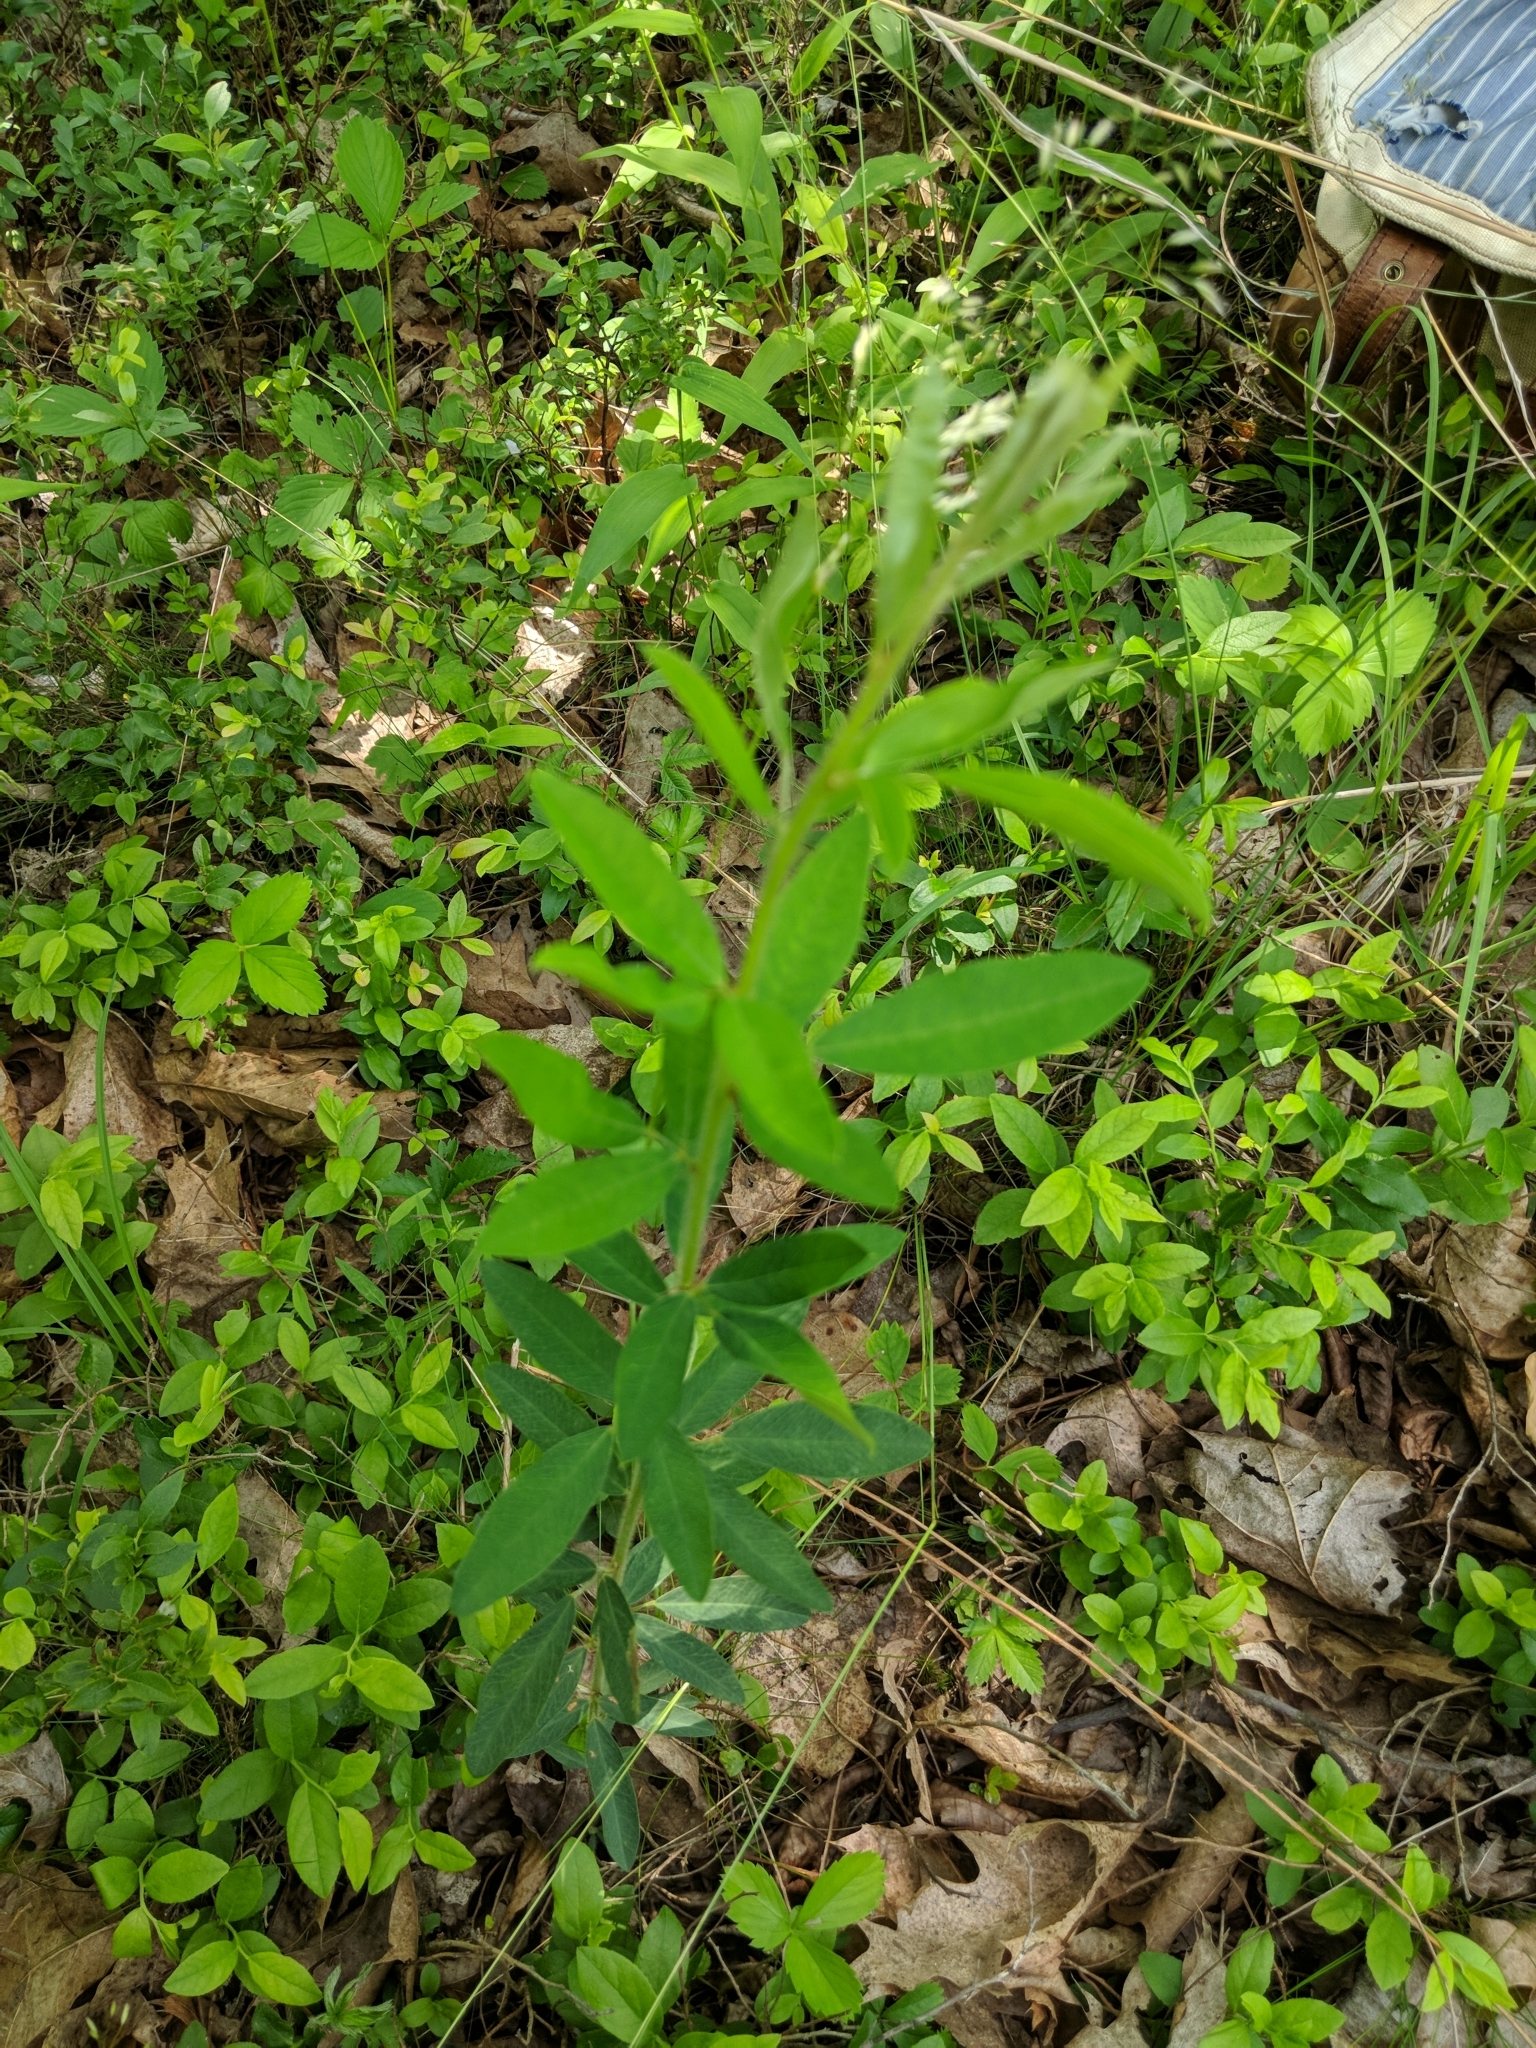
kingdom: Plantae
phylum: Tracheophyta
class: Magnoliopsida
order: Fabales
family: Fabaceae
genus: Lespedeza
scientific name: Lespedeza capitata
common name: Dusty clover
